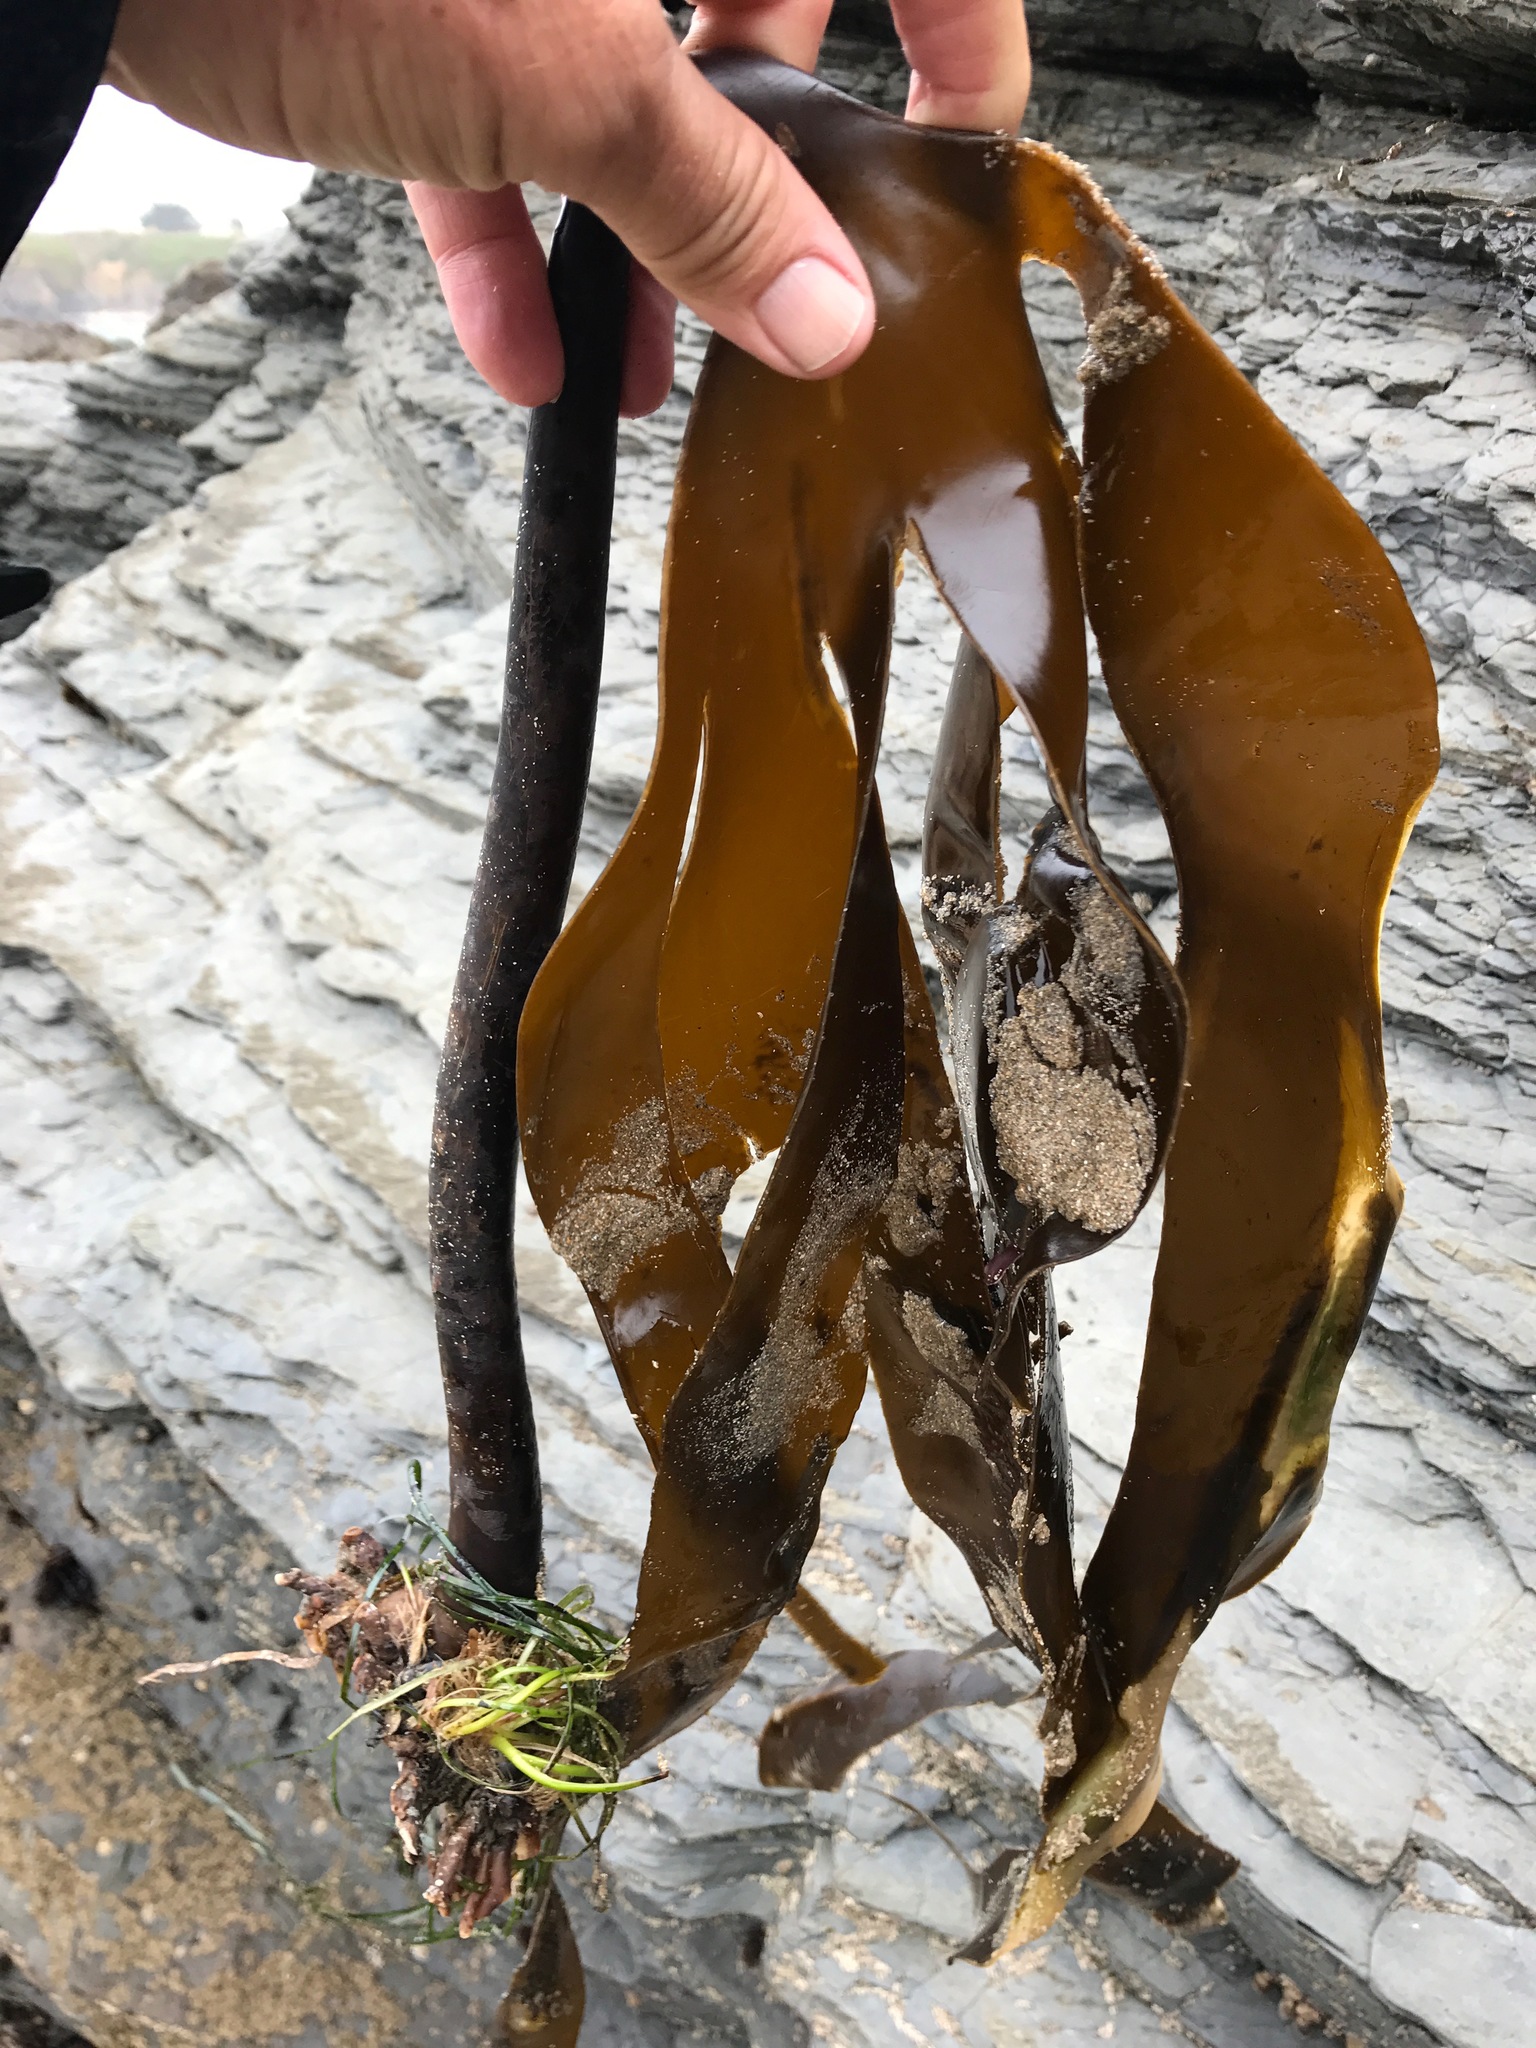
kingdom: Chromista
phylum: Ochrophyta
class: Phaeophyceae
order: Laminariales
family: Laminariaceae
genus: Laminaria
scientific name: Laminaria setchellii
